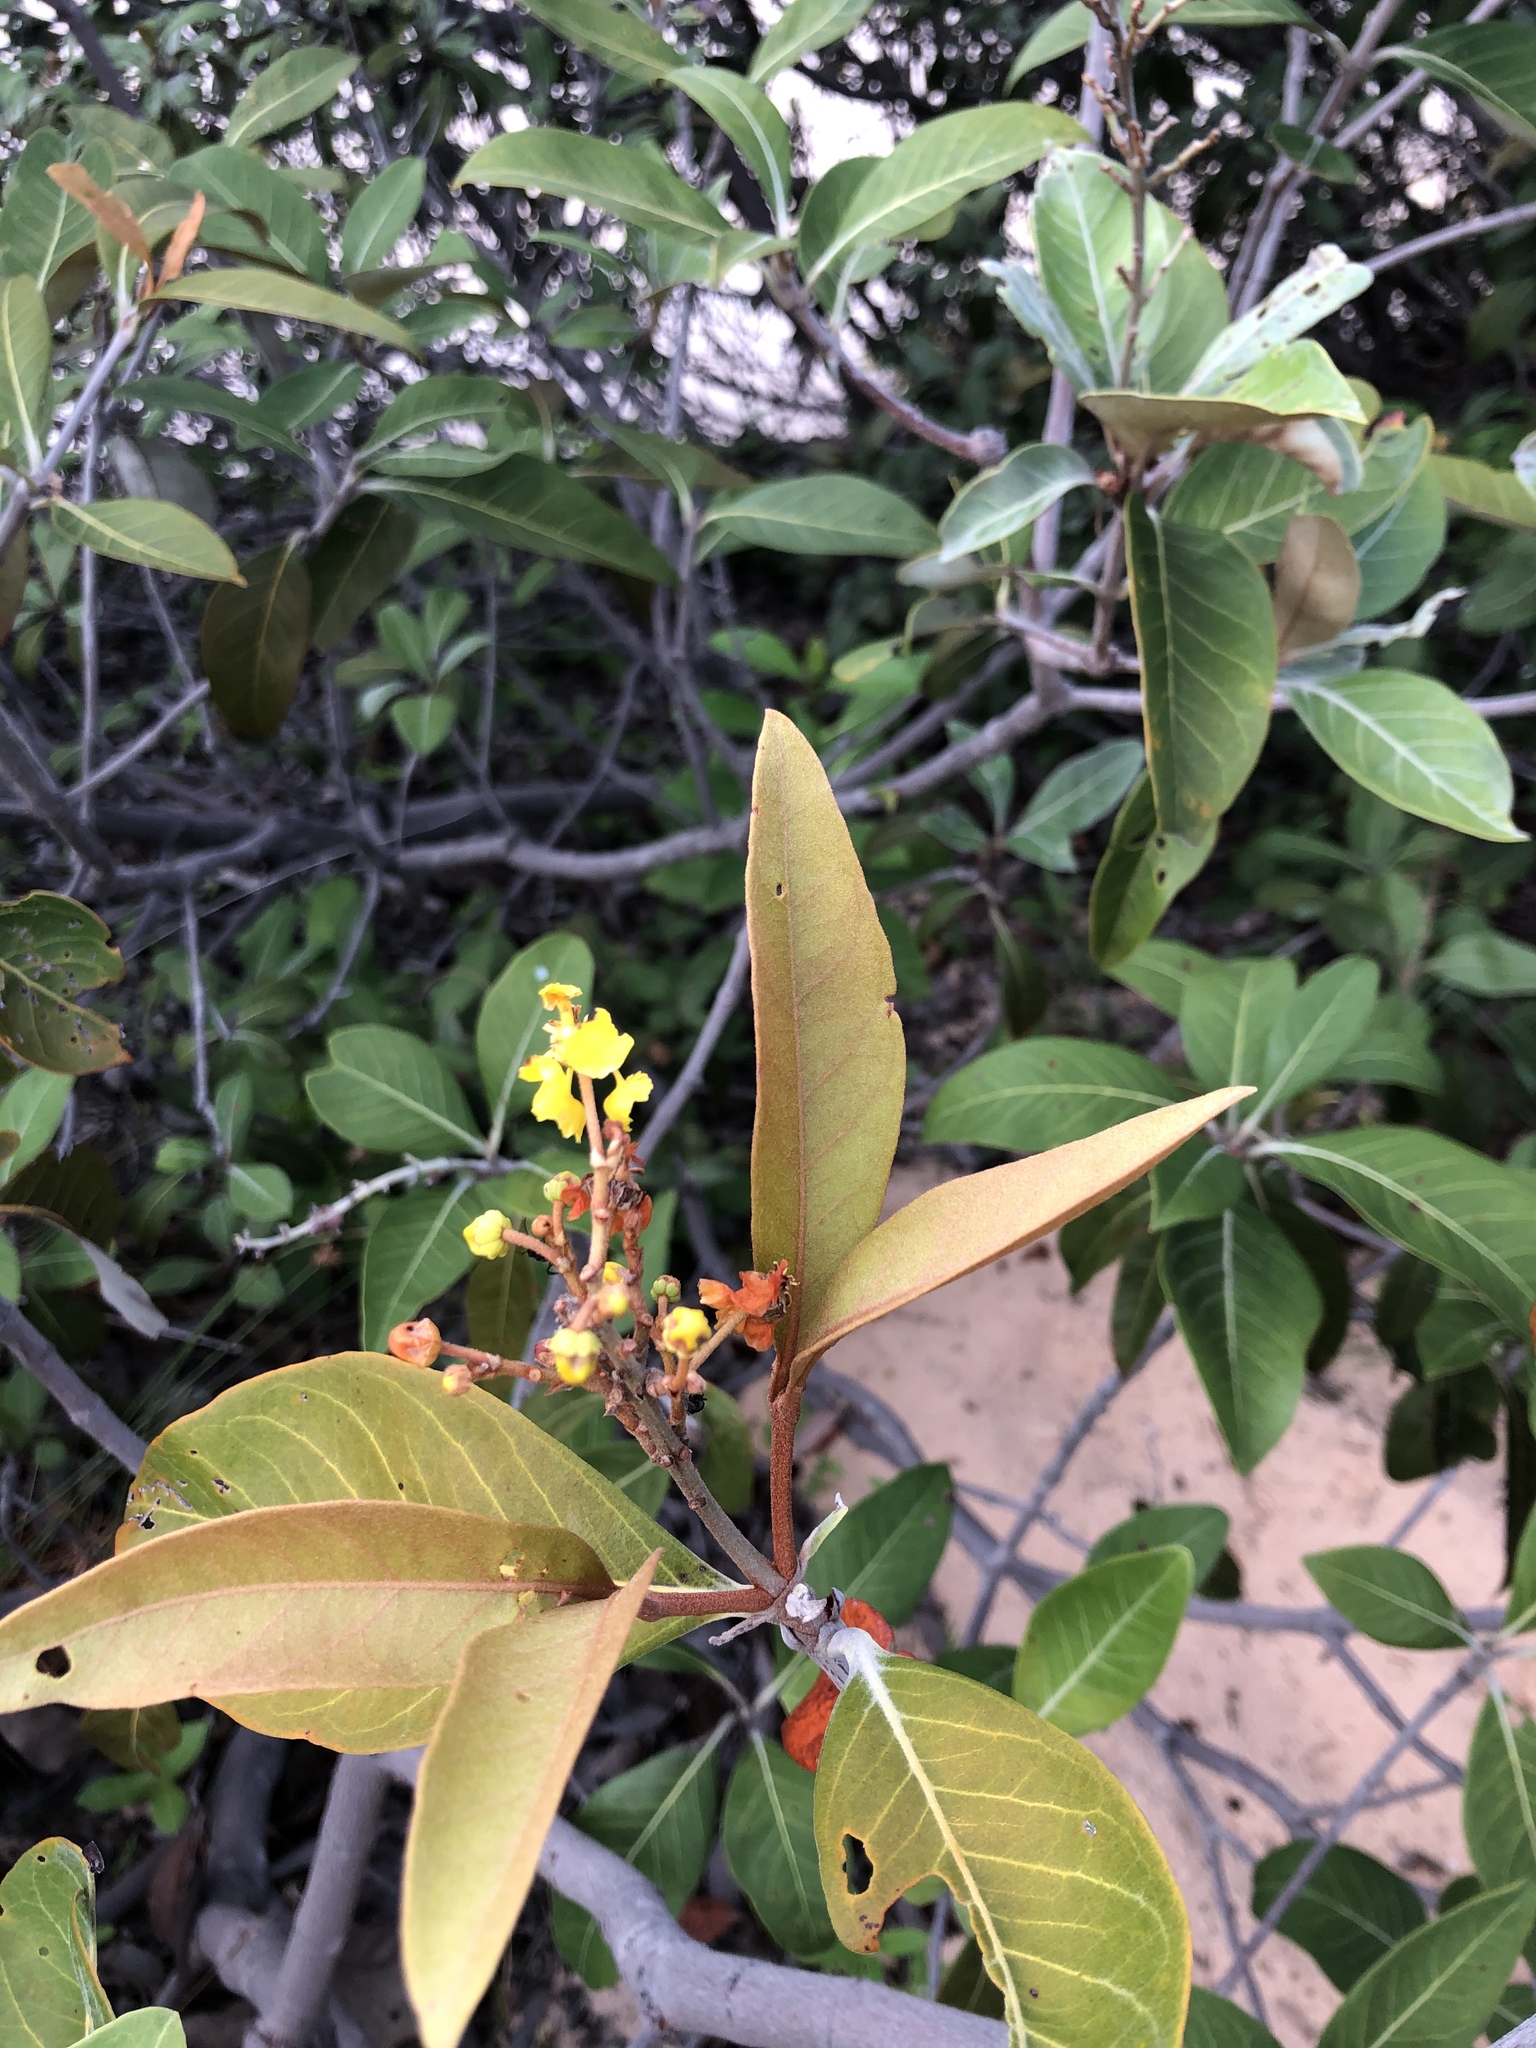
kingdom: Plantae
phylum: Tracheophyta
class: Magnoliopsida
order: Malpighiales
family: Malpighiaceae
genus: Byrsonima
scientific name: Byrsonima crassifolia
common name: Golden spoon
